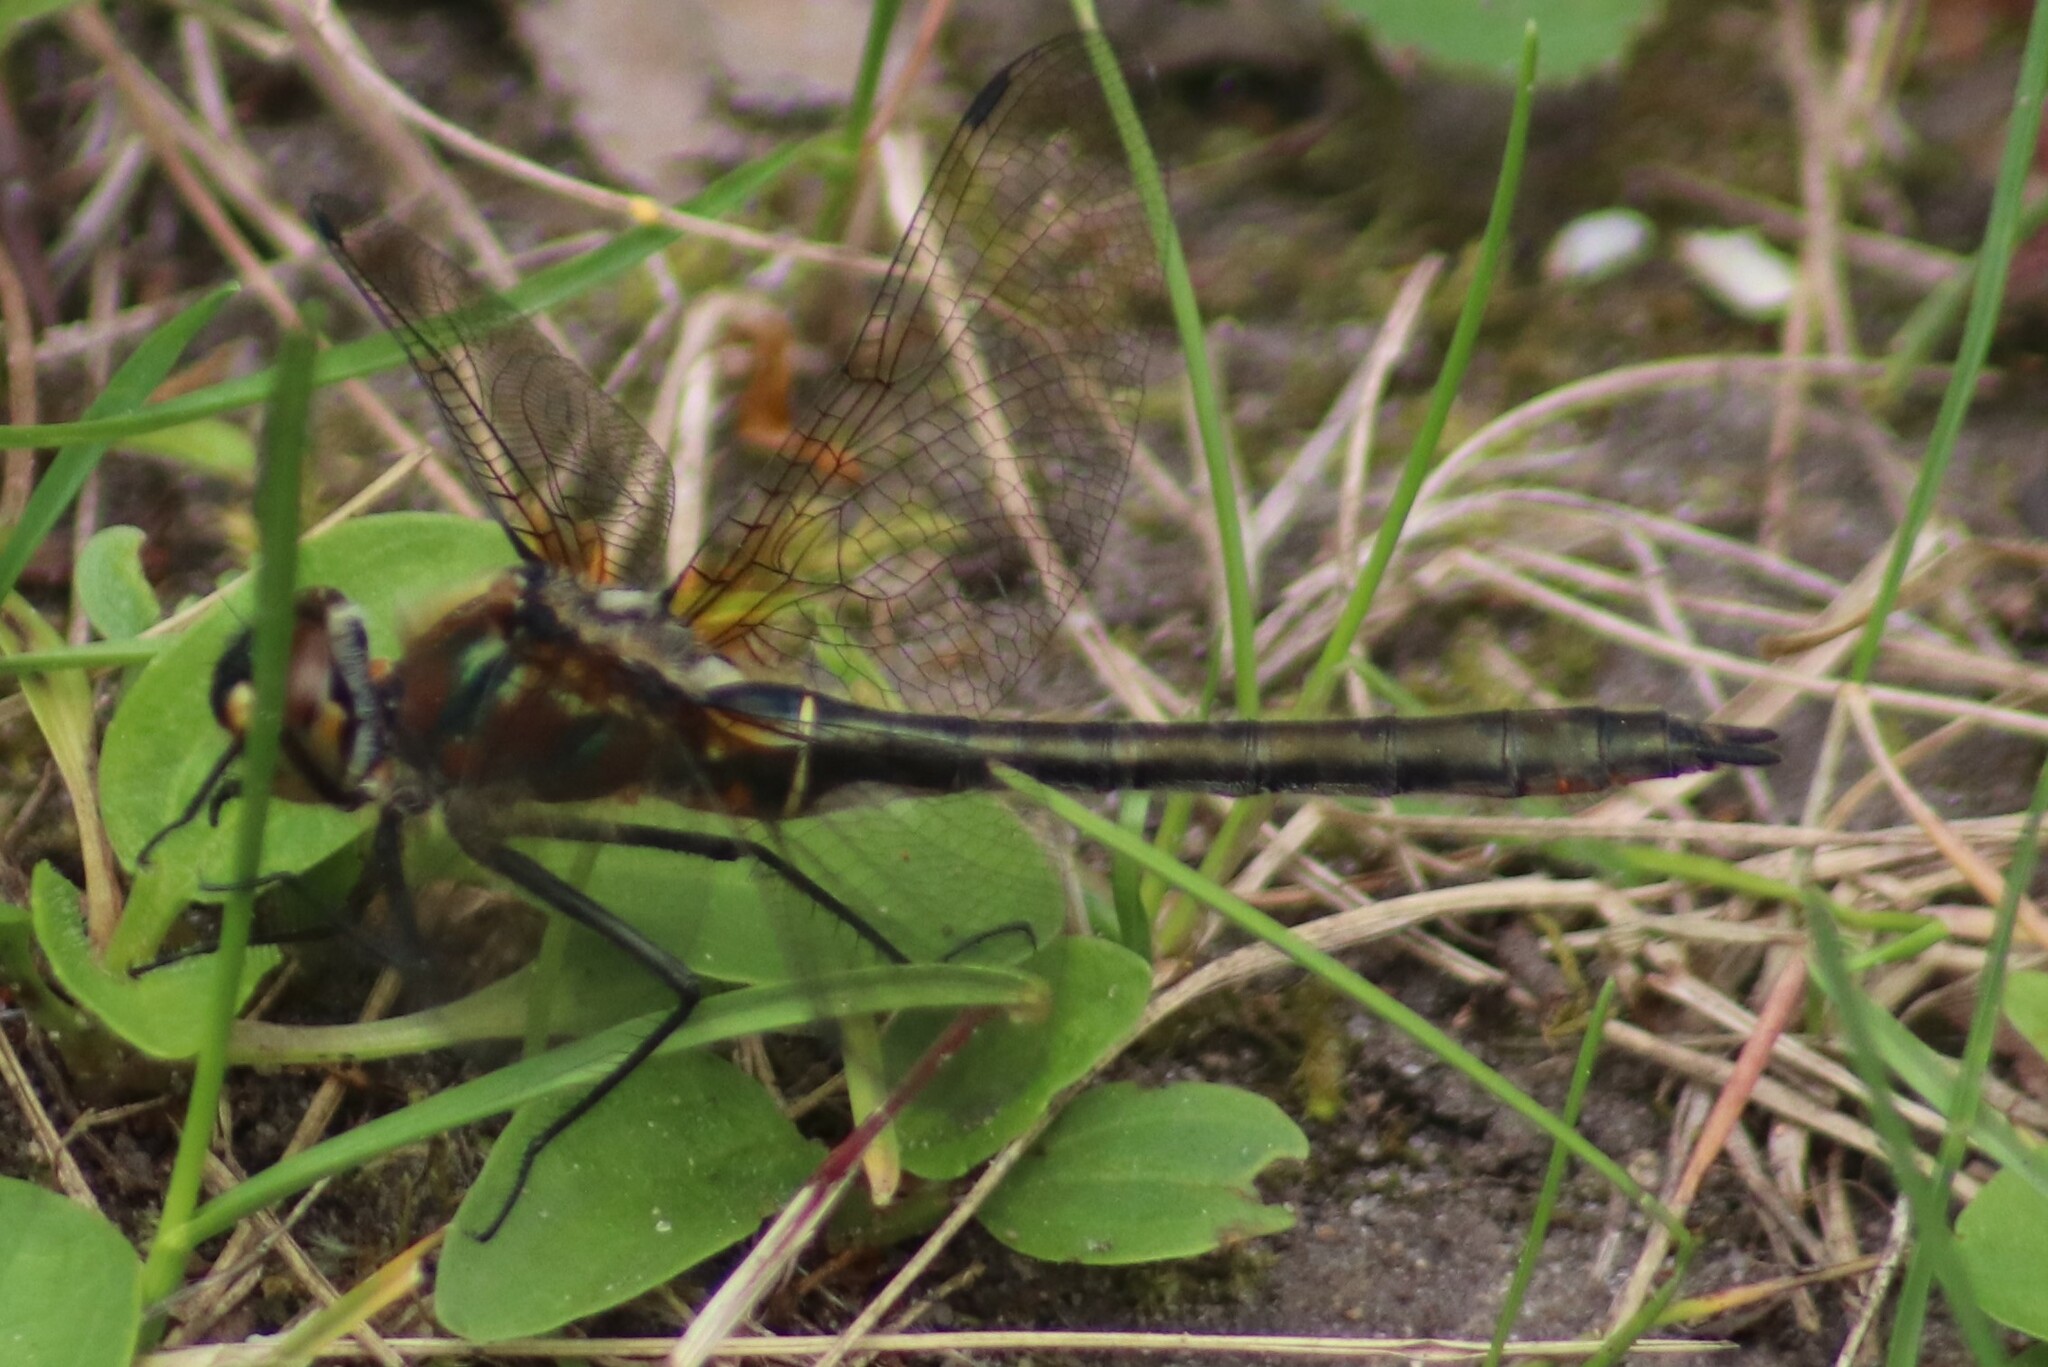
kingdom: Animalia
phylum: Arthropoda
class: Insecta
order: Odonata
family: Corduliidae
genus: Cordulia
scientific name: Cordulia shurtleffii
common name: American emerald
